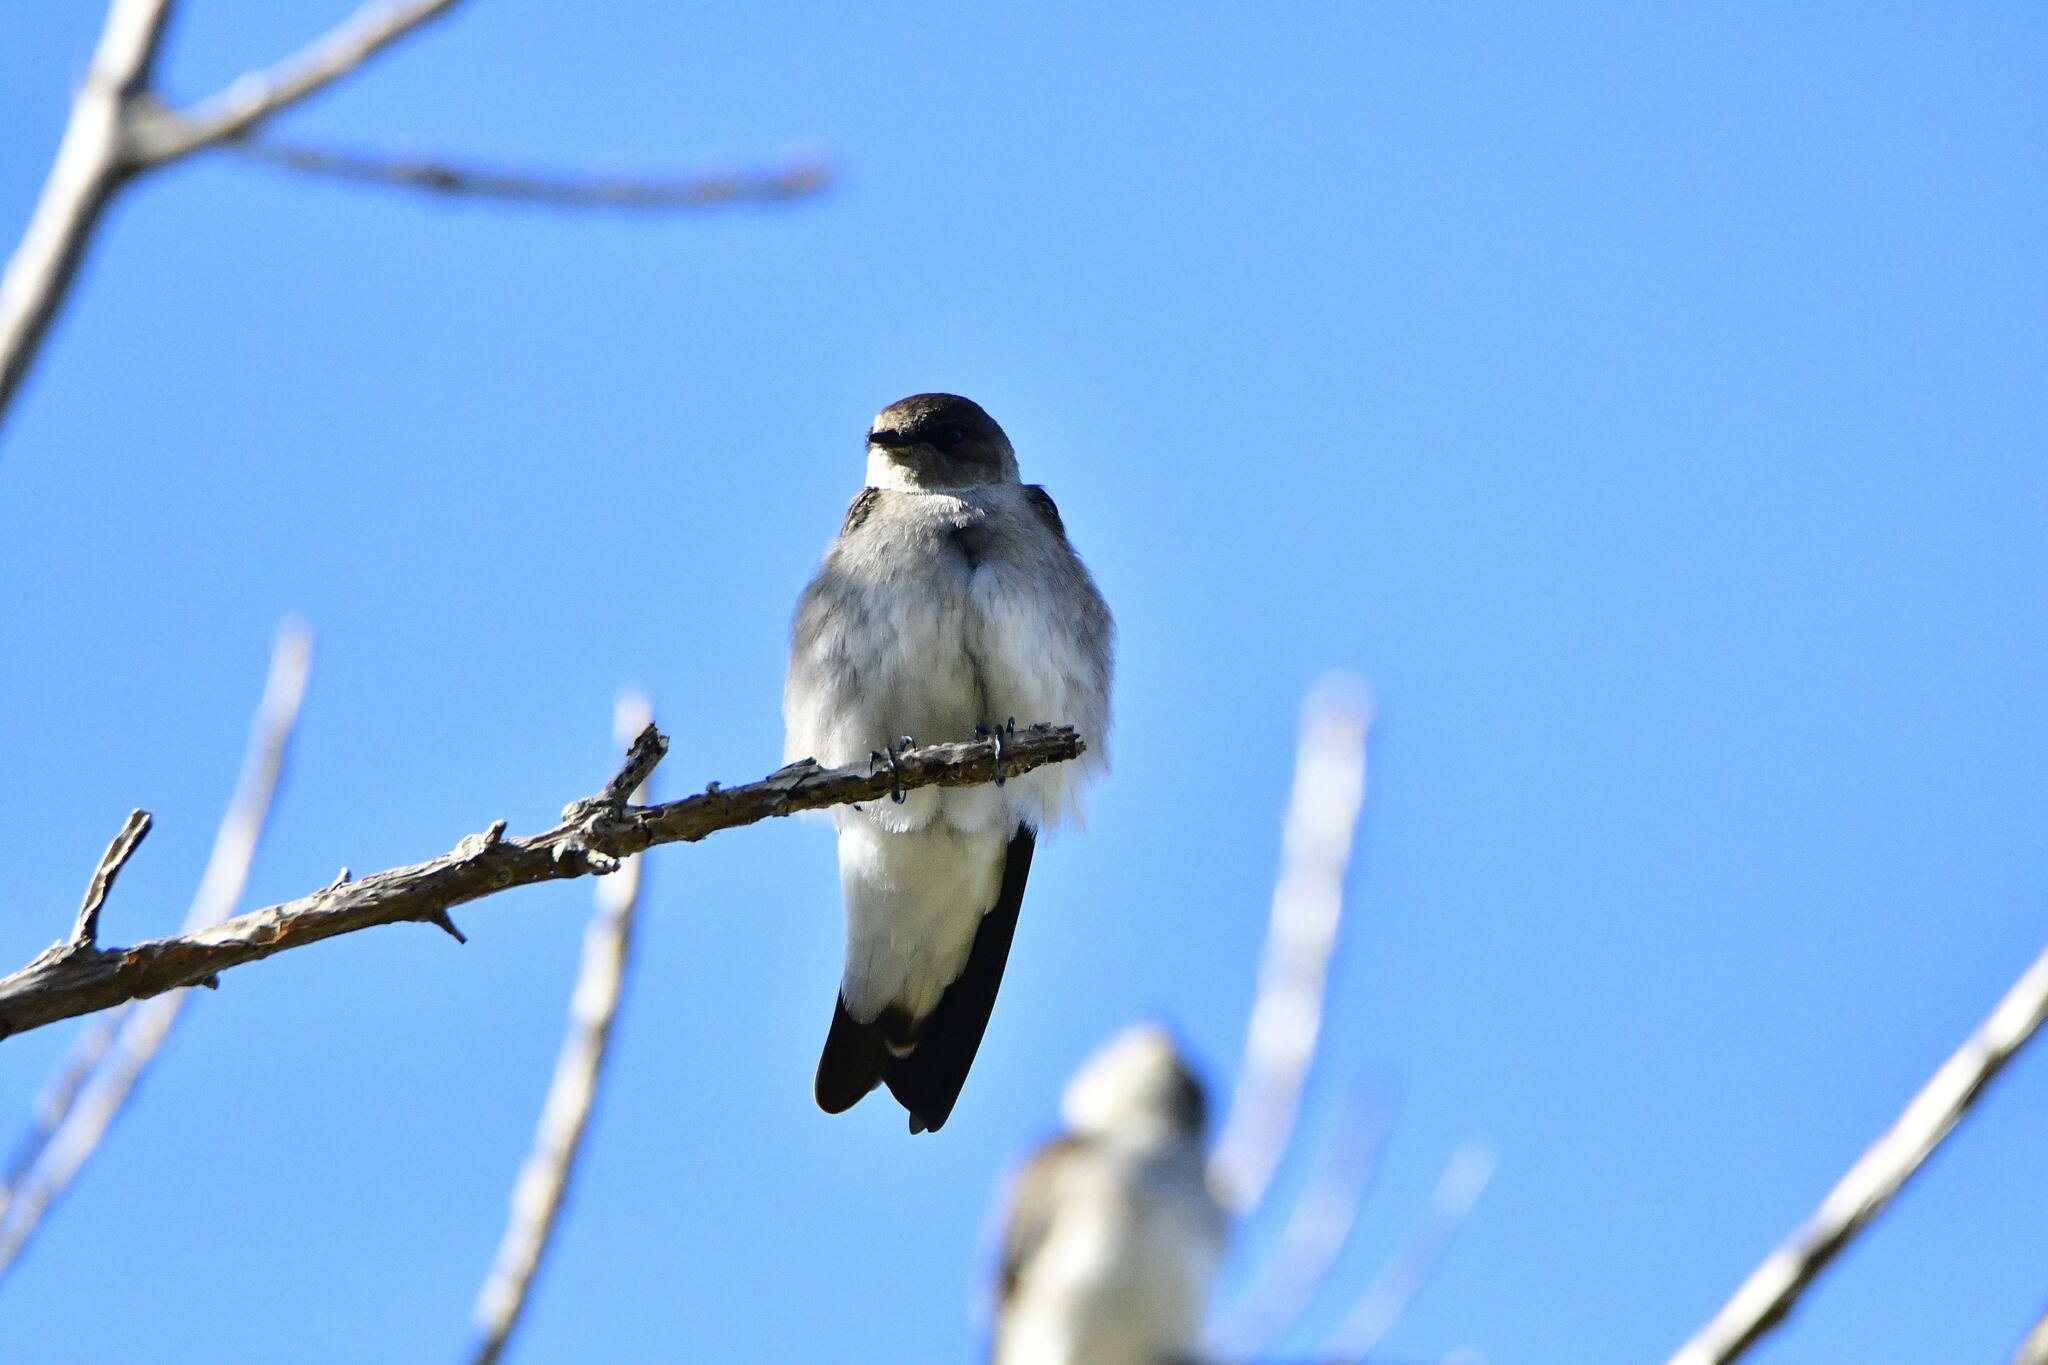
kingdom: Animalia
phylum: Chordata
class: Aves
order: Passeriformes
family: Hirundinidae
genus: Stelgidopteryx
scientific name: Stelgidopteryx serripennis
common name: Northern rough-winged swallow
